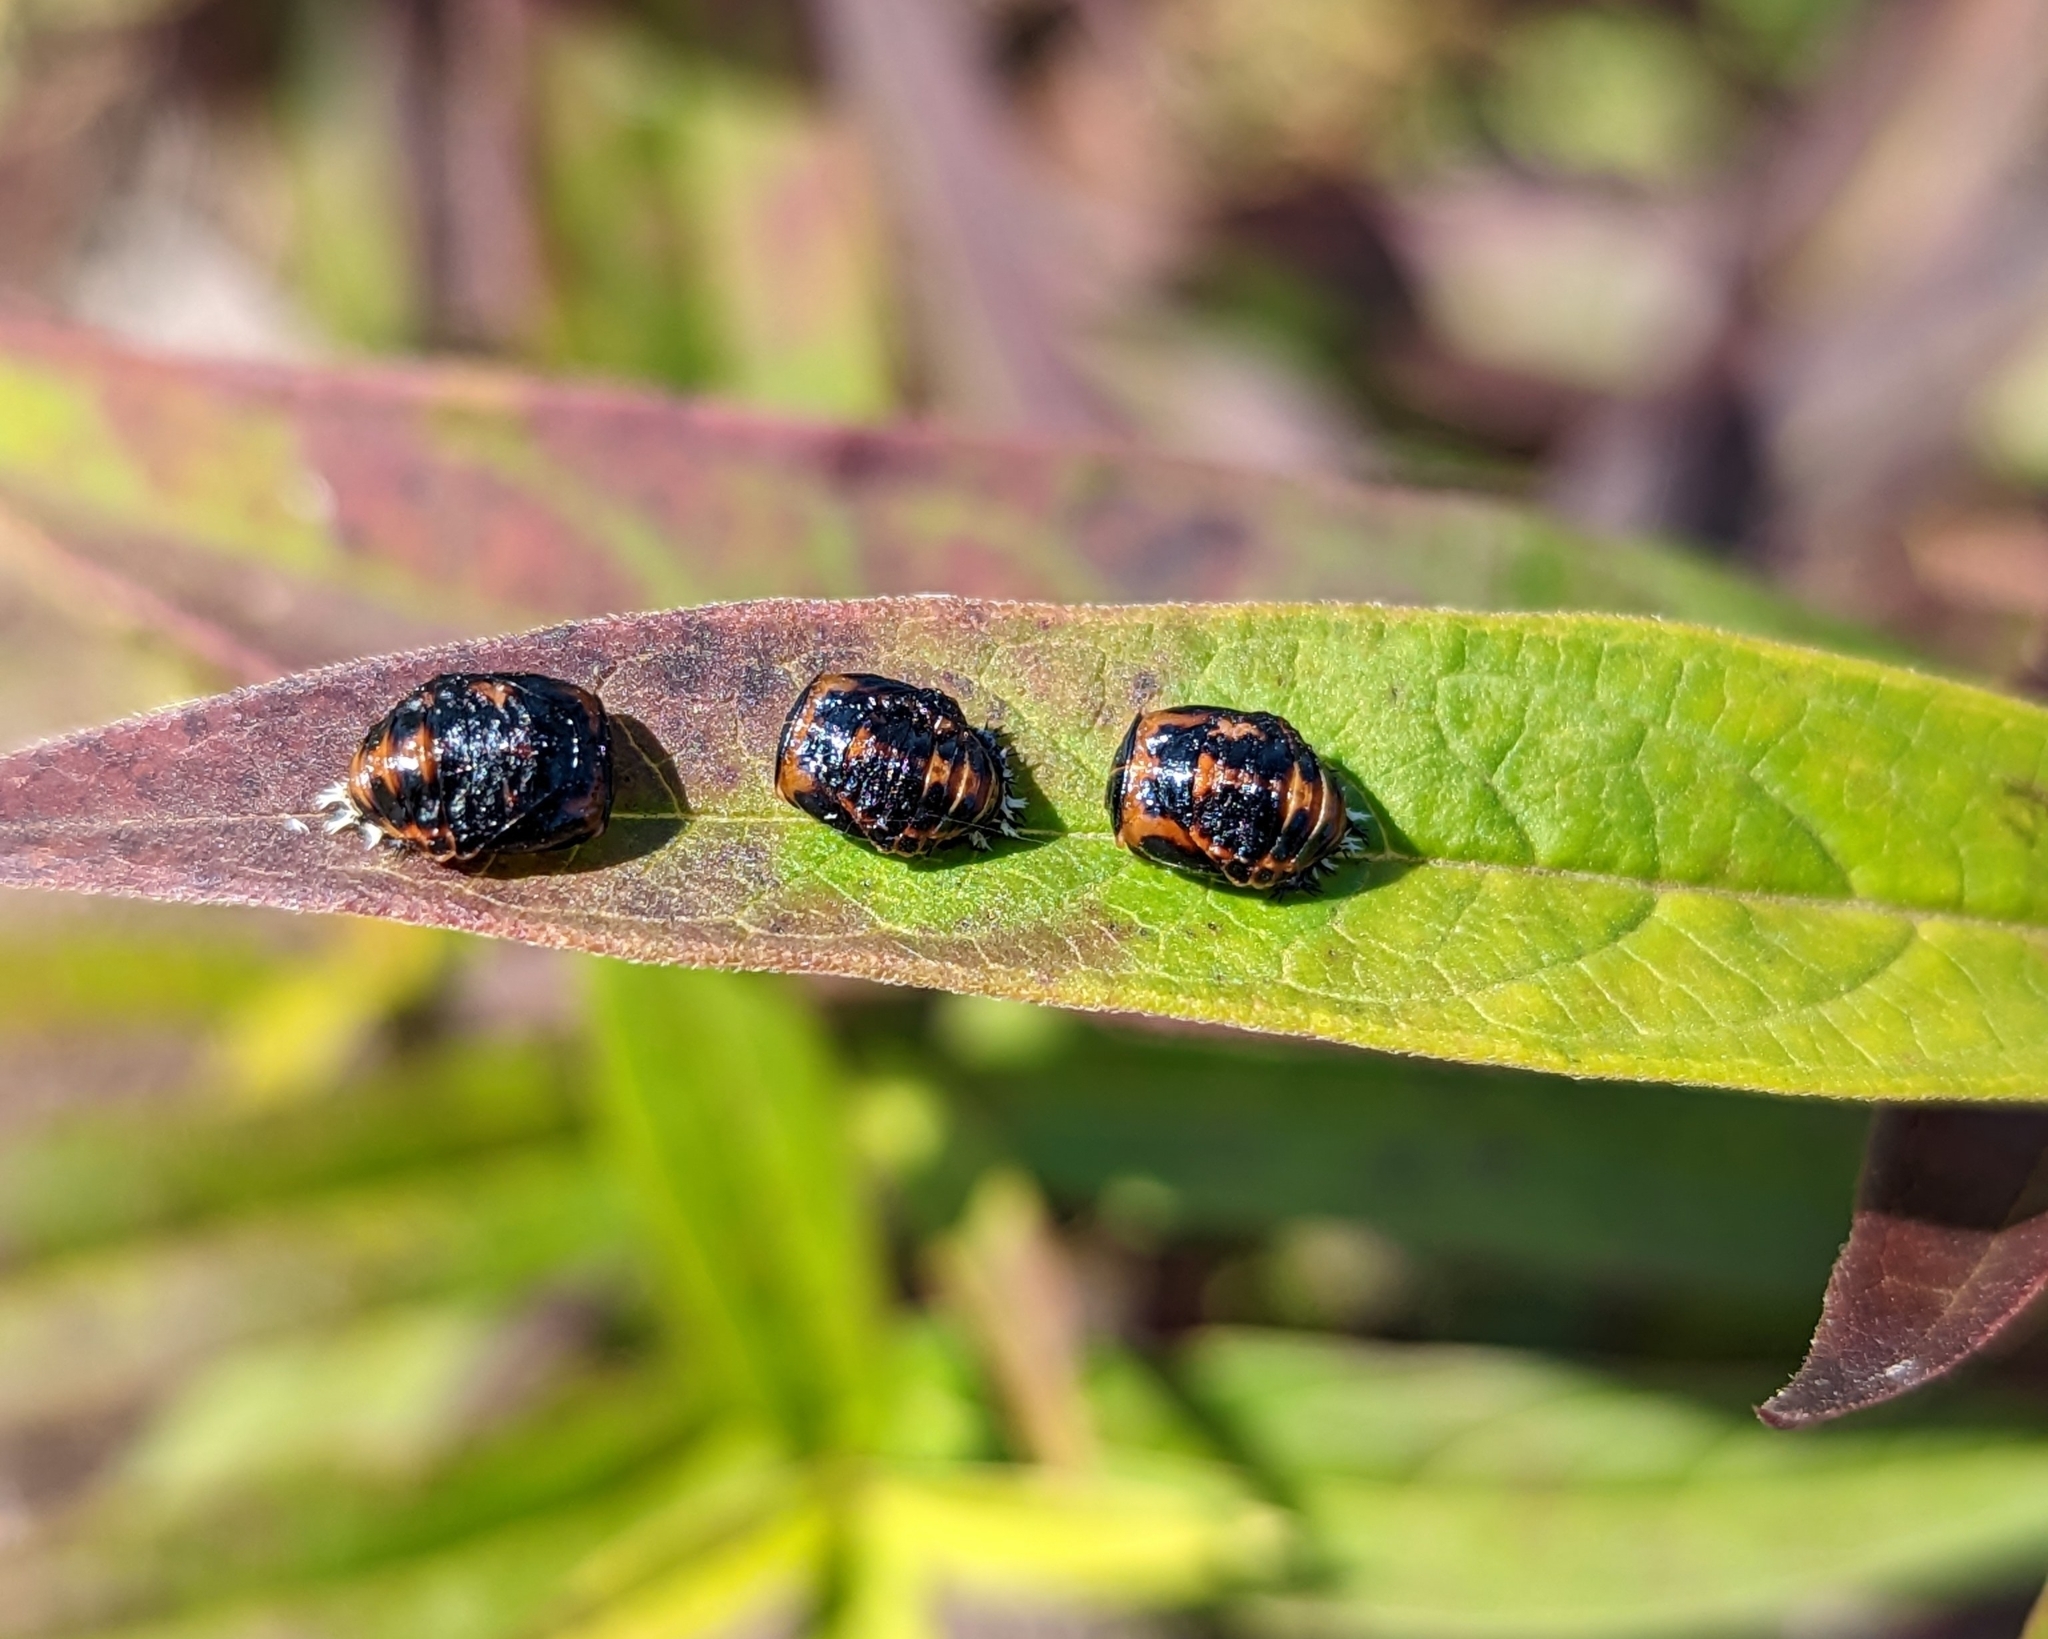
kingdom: Animalia
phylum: Arthropoda
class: Insecta
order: Coleoptera
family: Coccinellidae
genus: Harmonia
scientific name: Harmonia axyridis
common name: Harlequin ladybird
